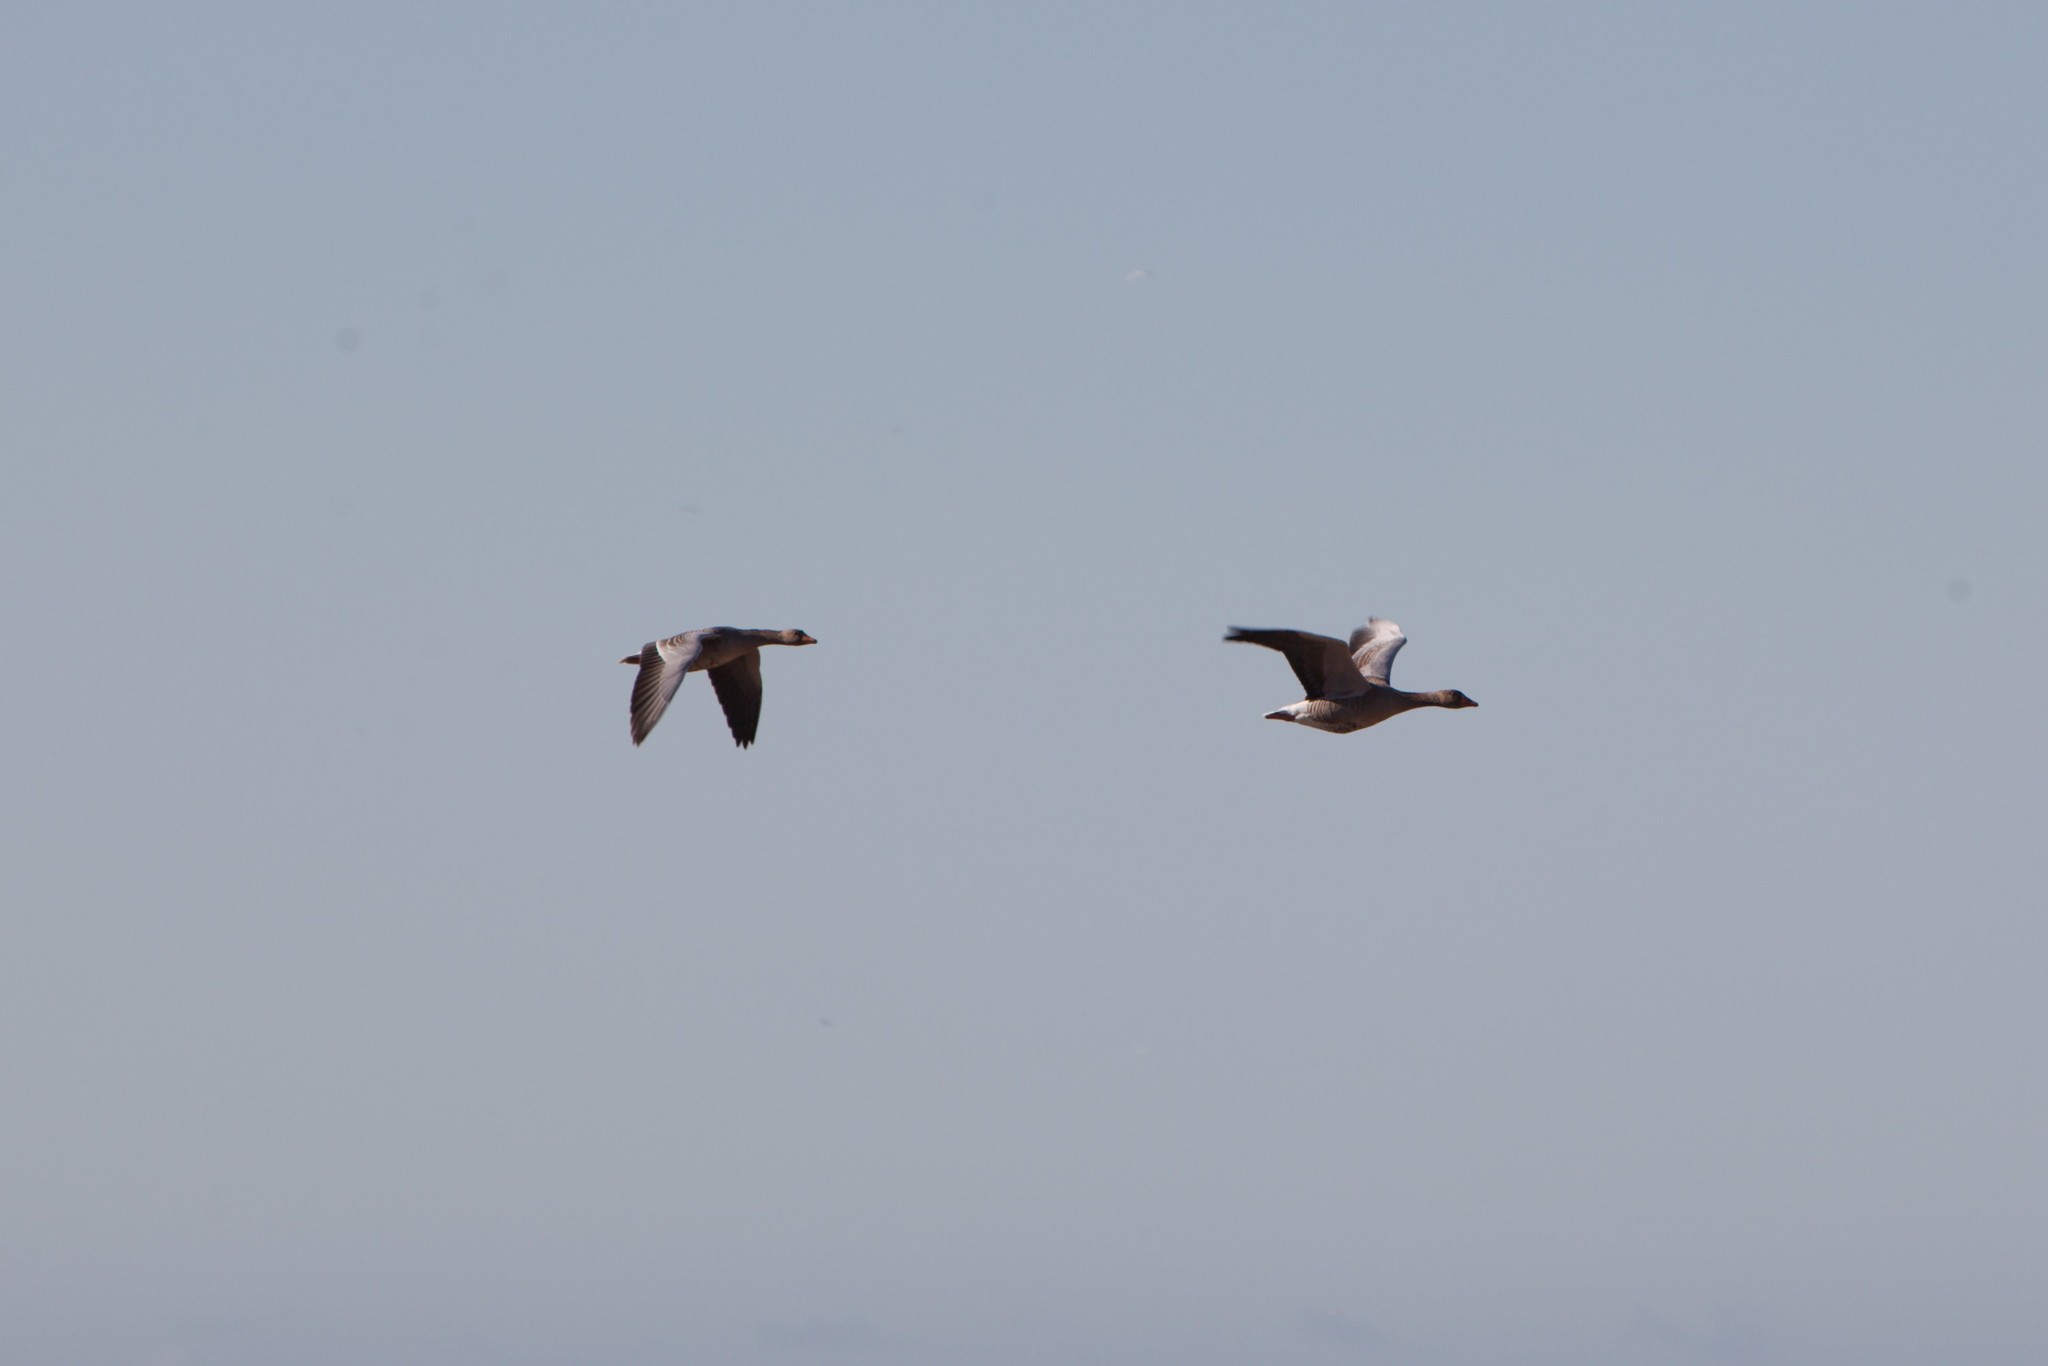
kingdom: Animalia
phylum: Chordata
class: Aves
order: Anseriformes
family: Anatidae
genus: Anser
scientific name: Anser anser
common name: Greylag goose
